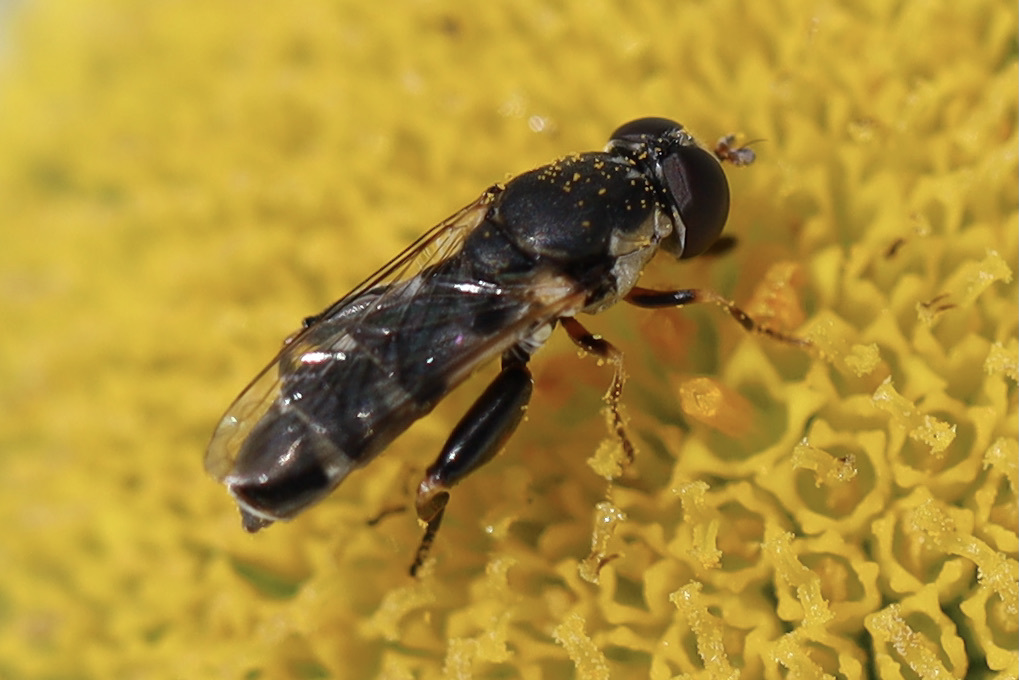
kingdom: Animalia
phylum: Arthropoda
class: Insecta
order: Diptera
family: Syrphidae
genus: Syritta
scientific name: Syritta pipiens
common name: Hover fly
